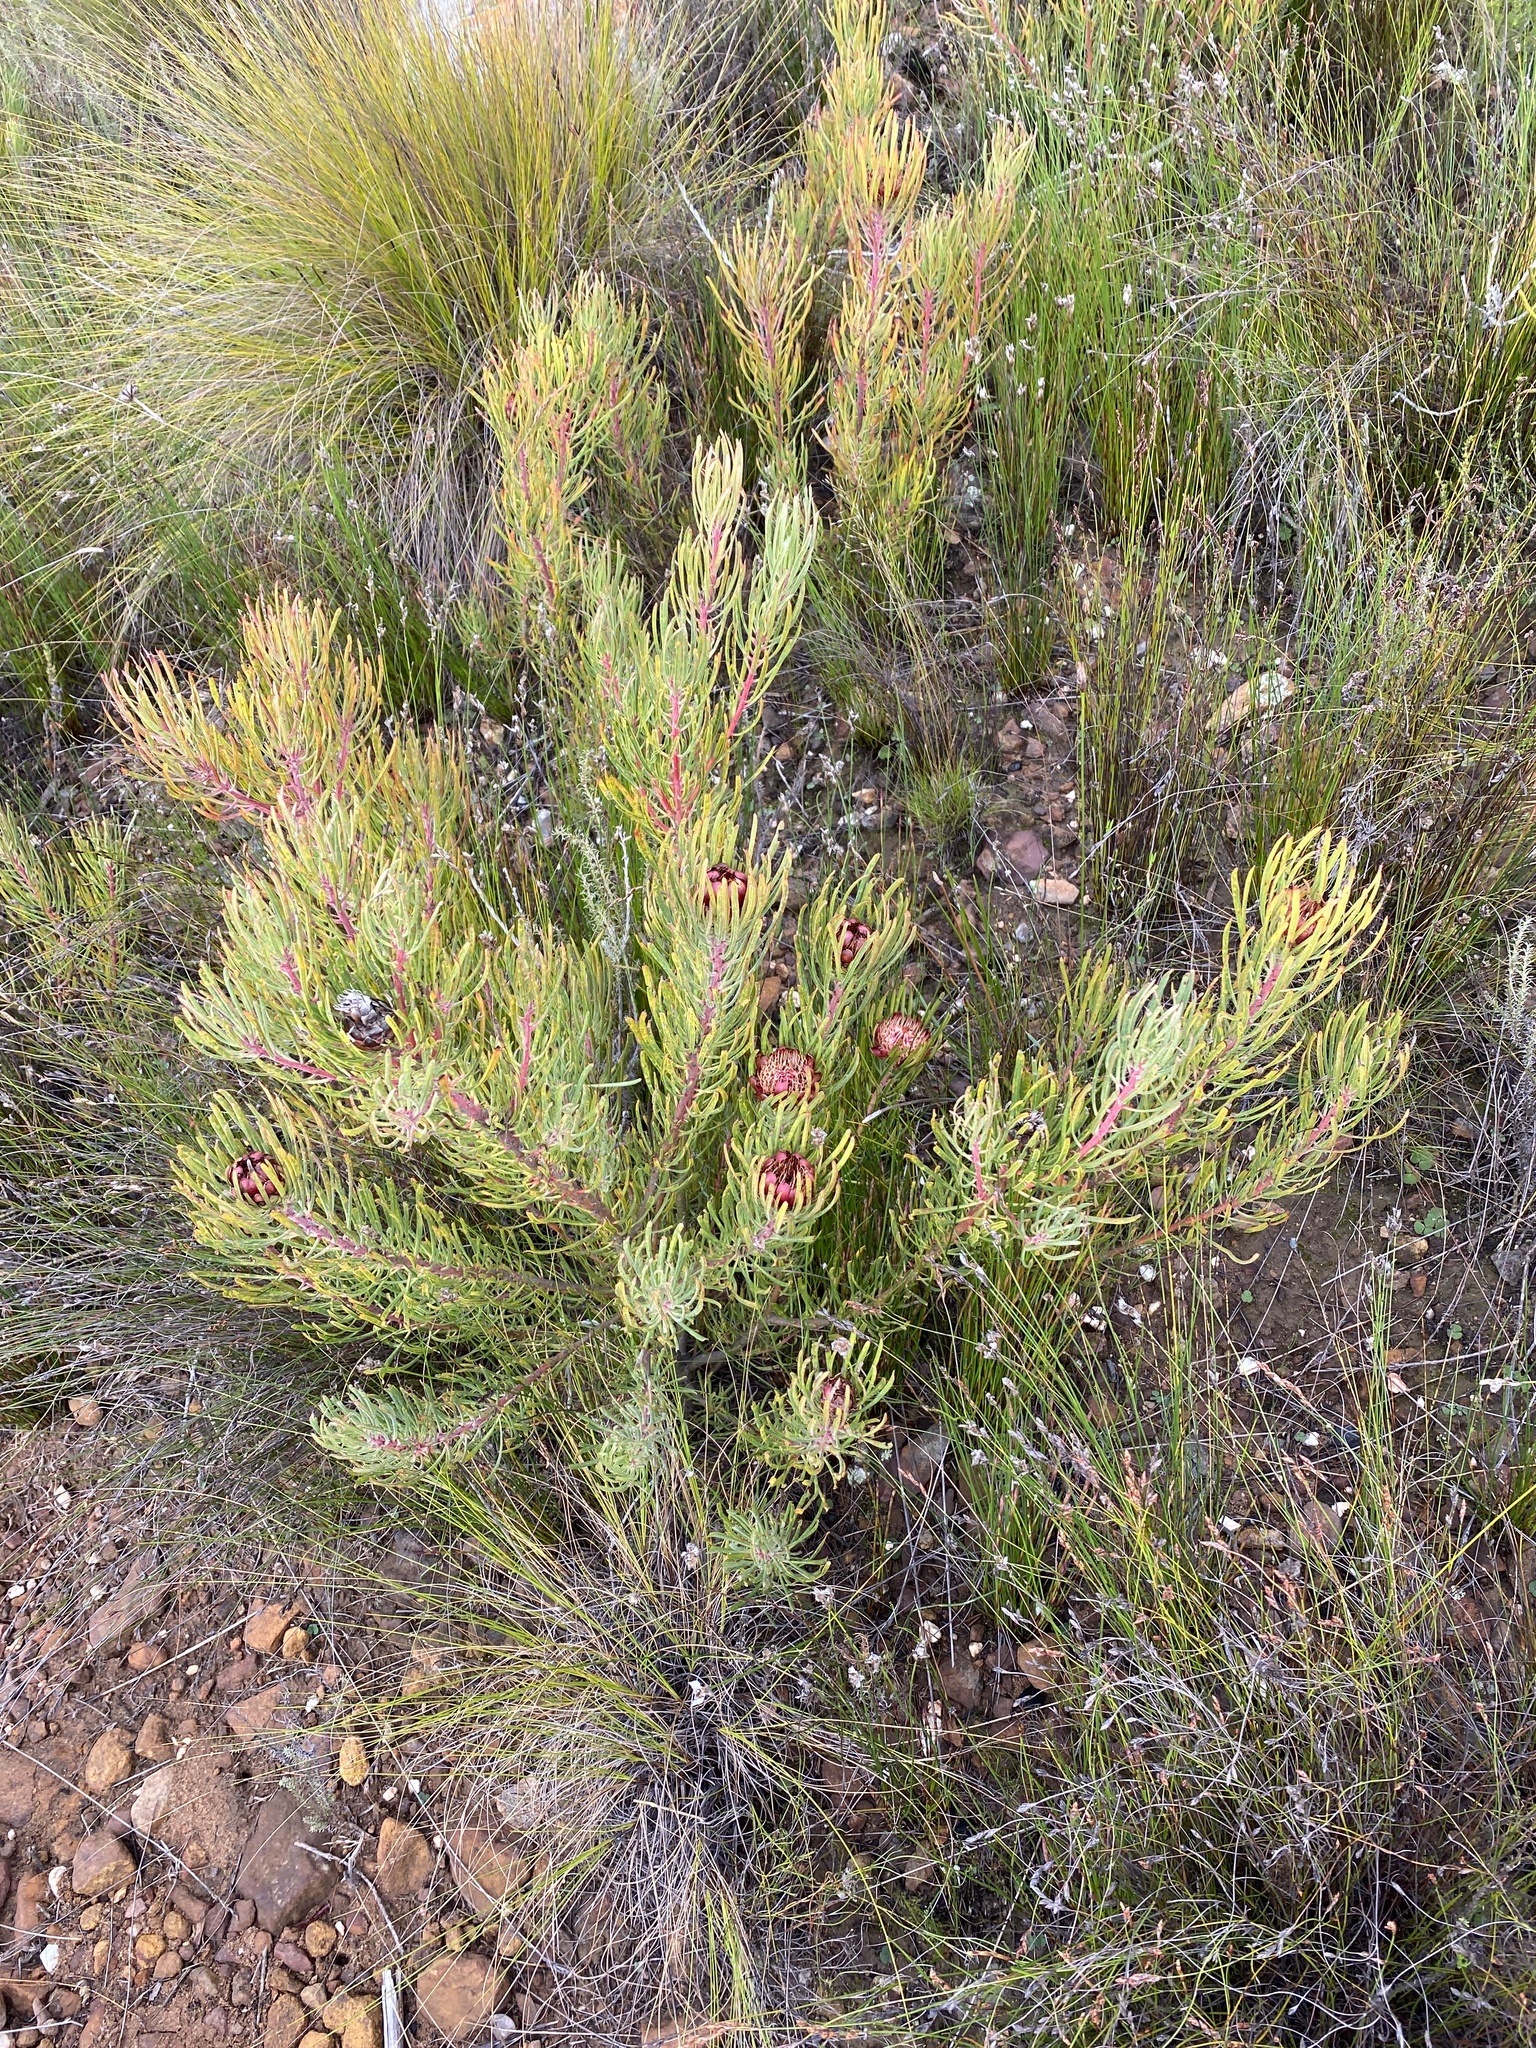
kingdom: Plantae
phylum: Tracheophyta
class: Magnoliopsida
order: Proteales
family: Proteaceae
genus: Protea
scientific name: Protea canaliculata
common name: Groove-leaf sugarbush
